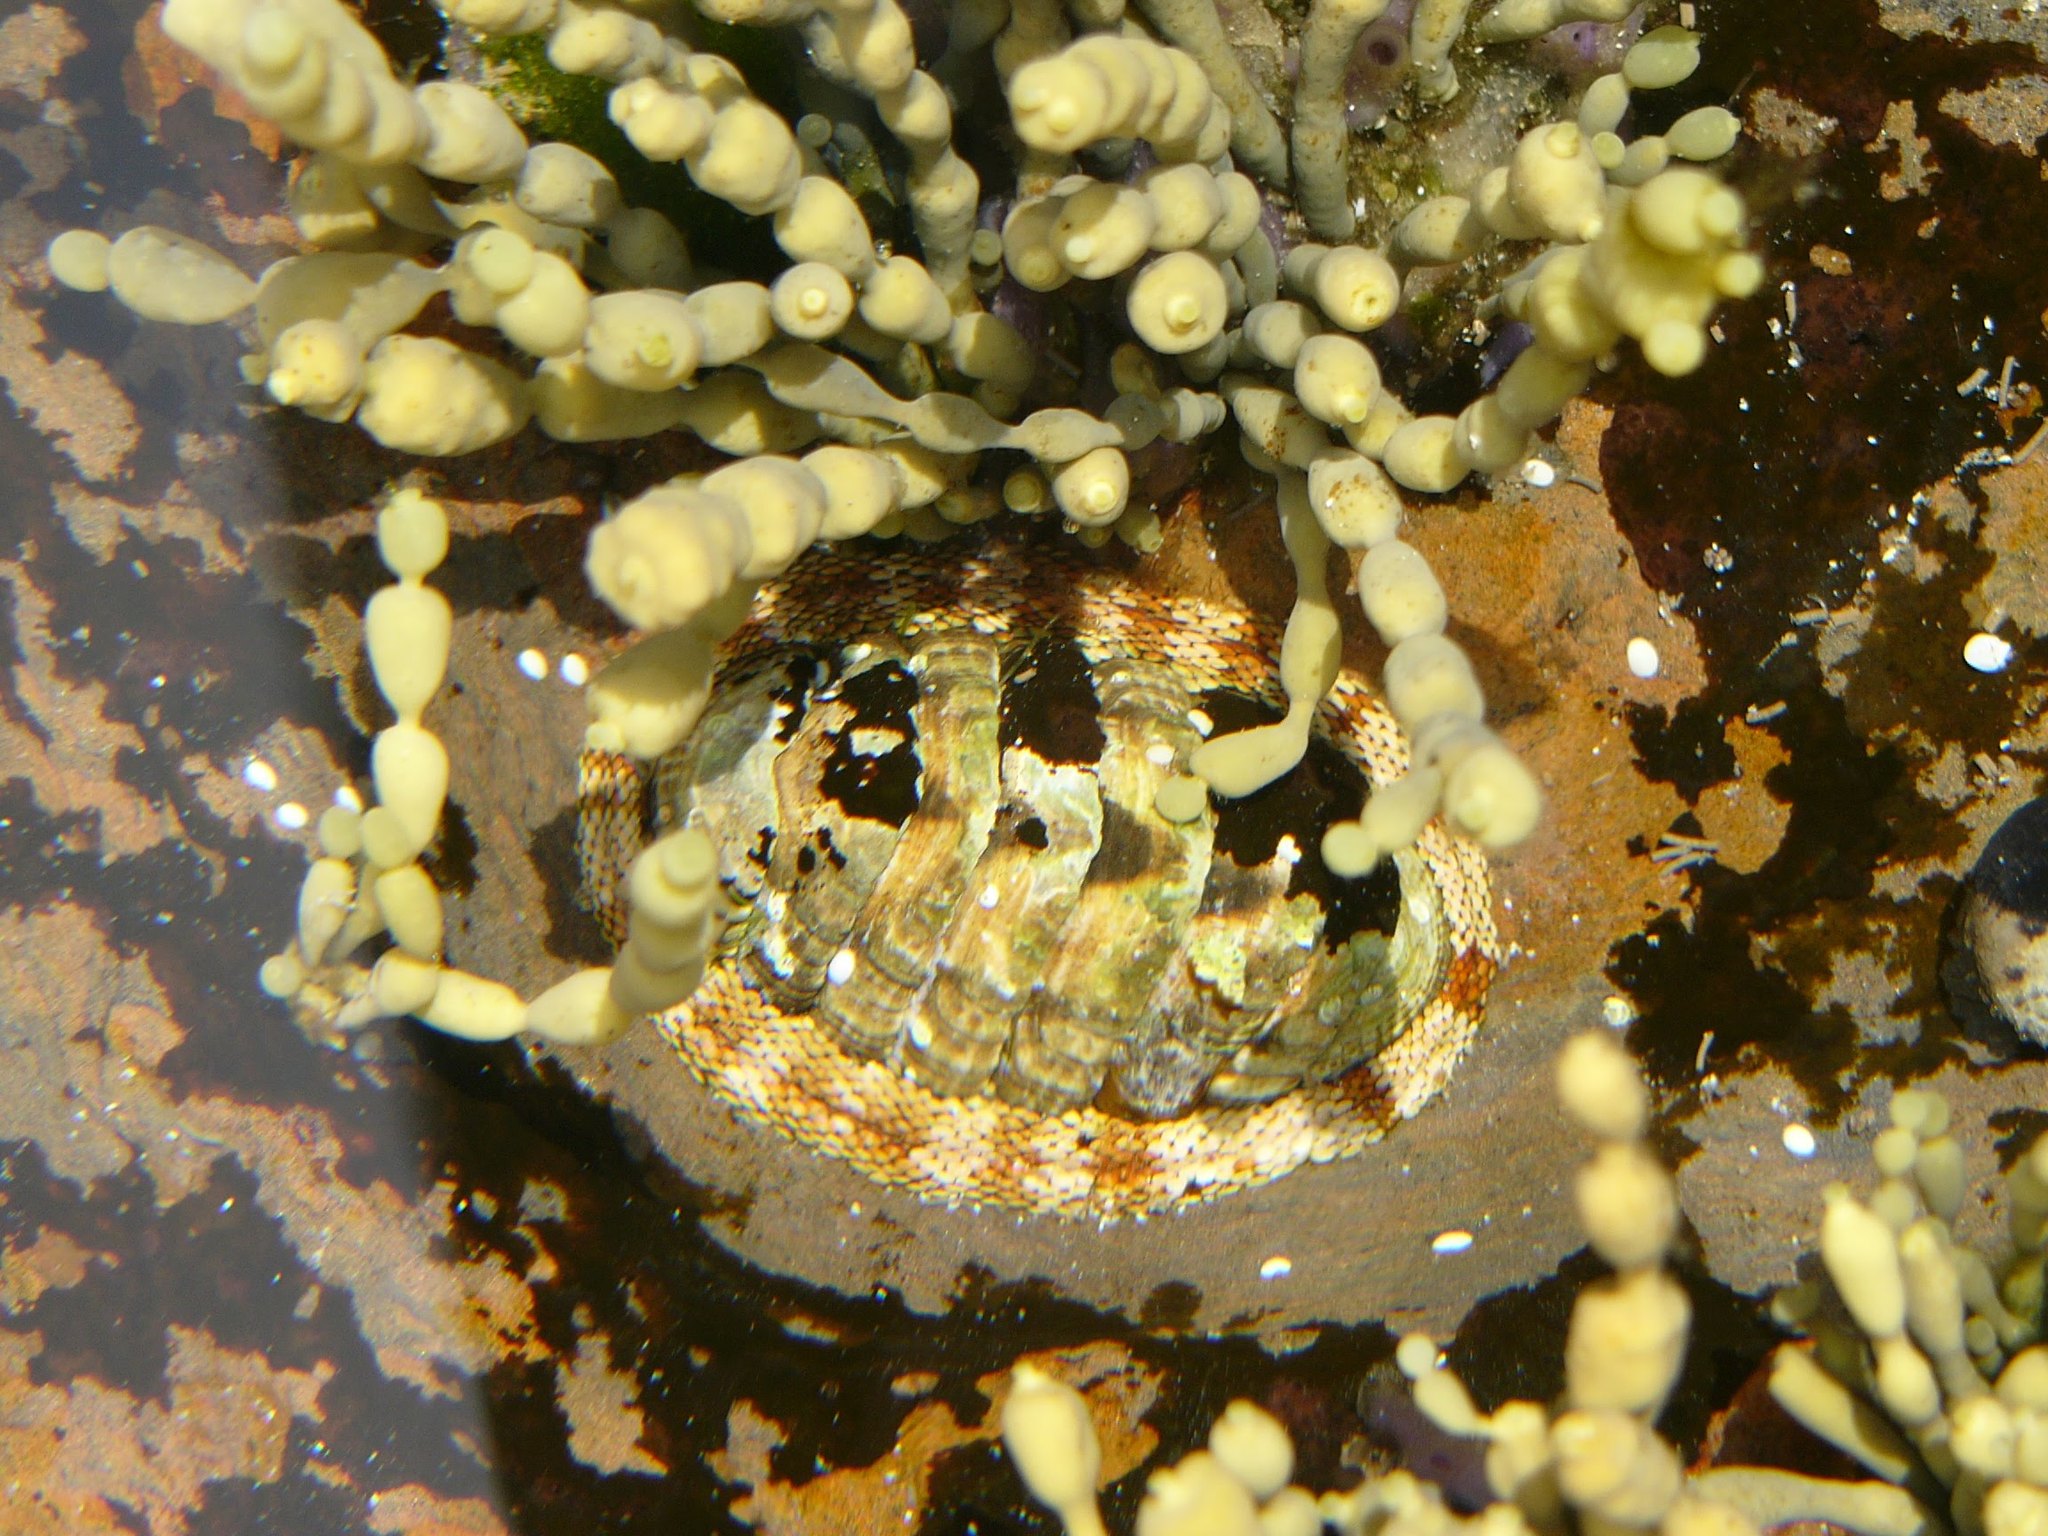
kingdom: Animalia
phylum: Mollusca
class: Polyplacophora
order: Chitonida
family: Chitonidae
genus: Sypharochiton
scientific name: Sypharochiton pelliserpentis
